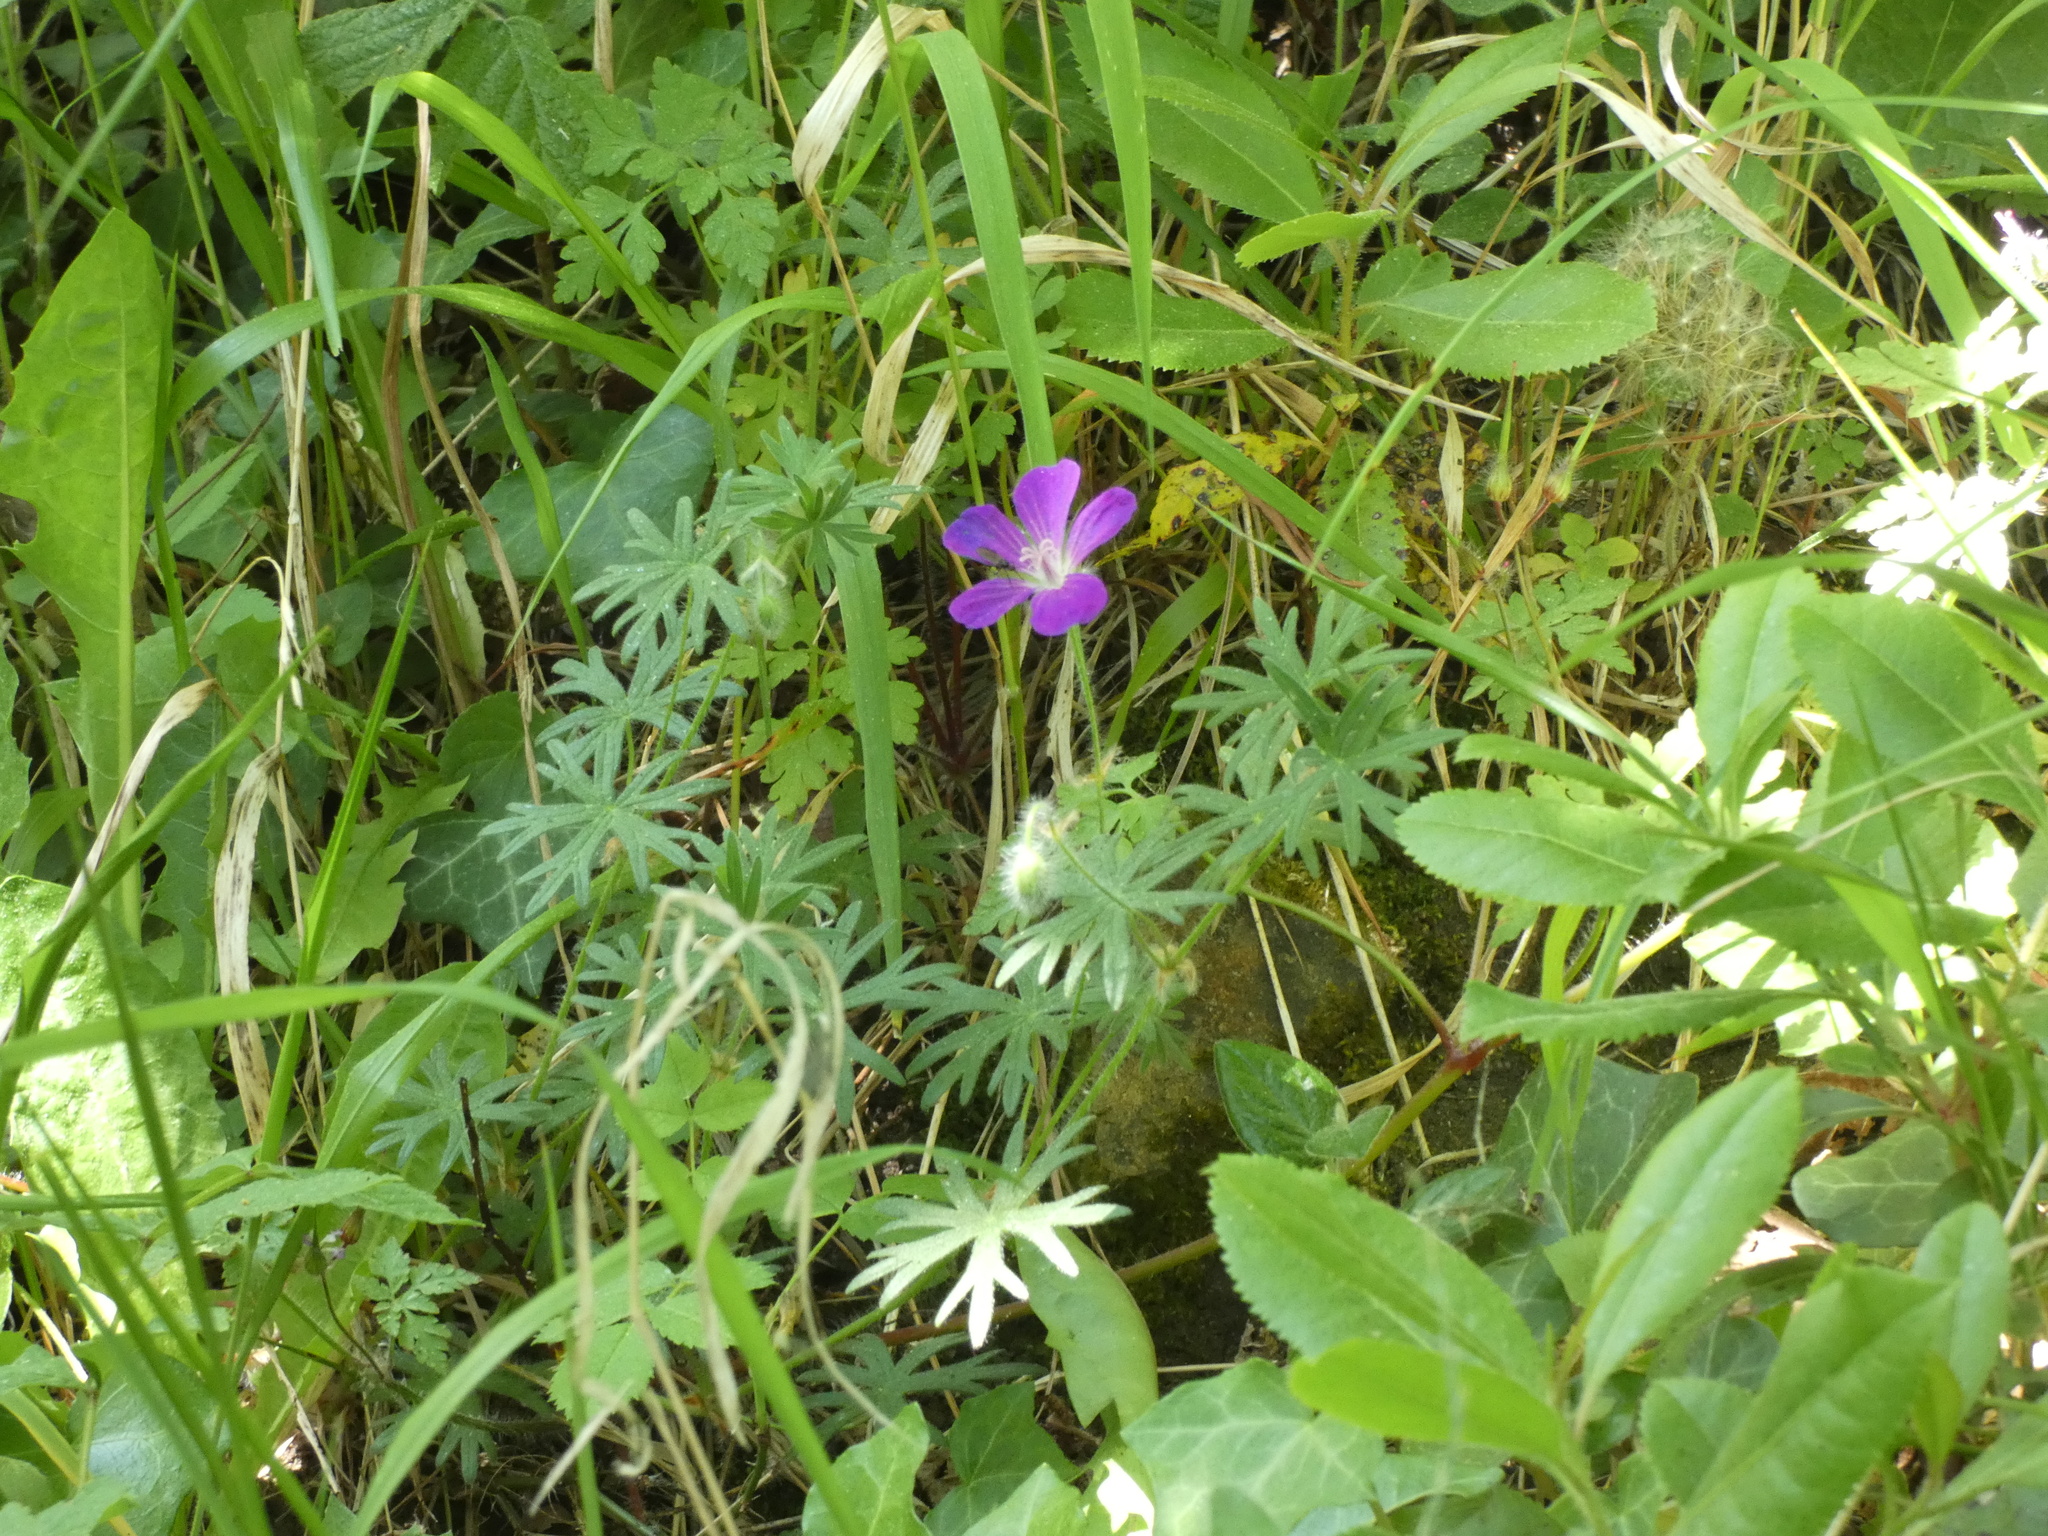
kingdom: Plantae
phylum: Tracheophyta
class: Magnoliopsida
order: Geraniales
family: Geraniaceae
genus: Geranium
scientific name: Geranium sanguineum
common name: Bloody crane's-bill
